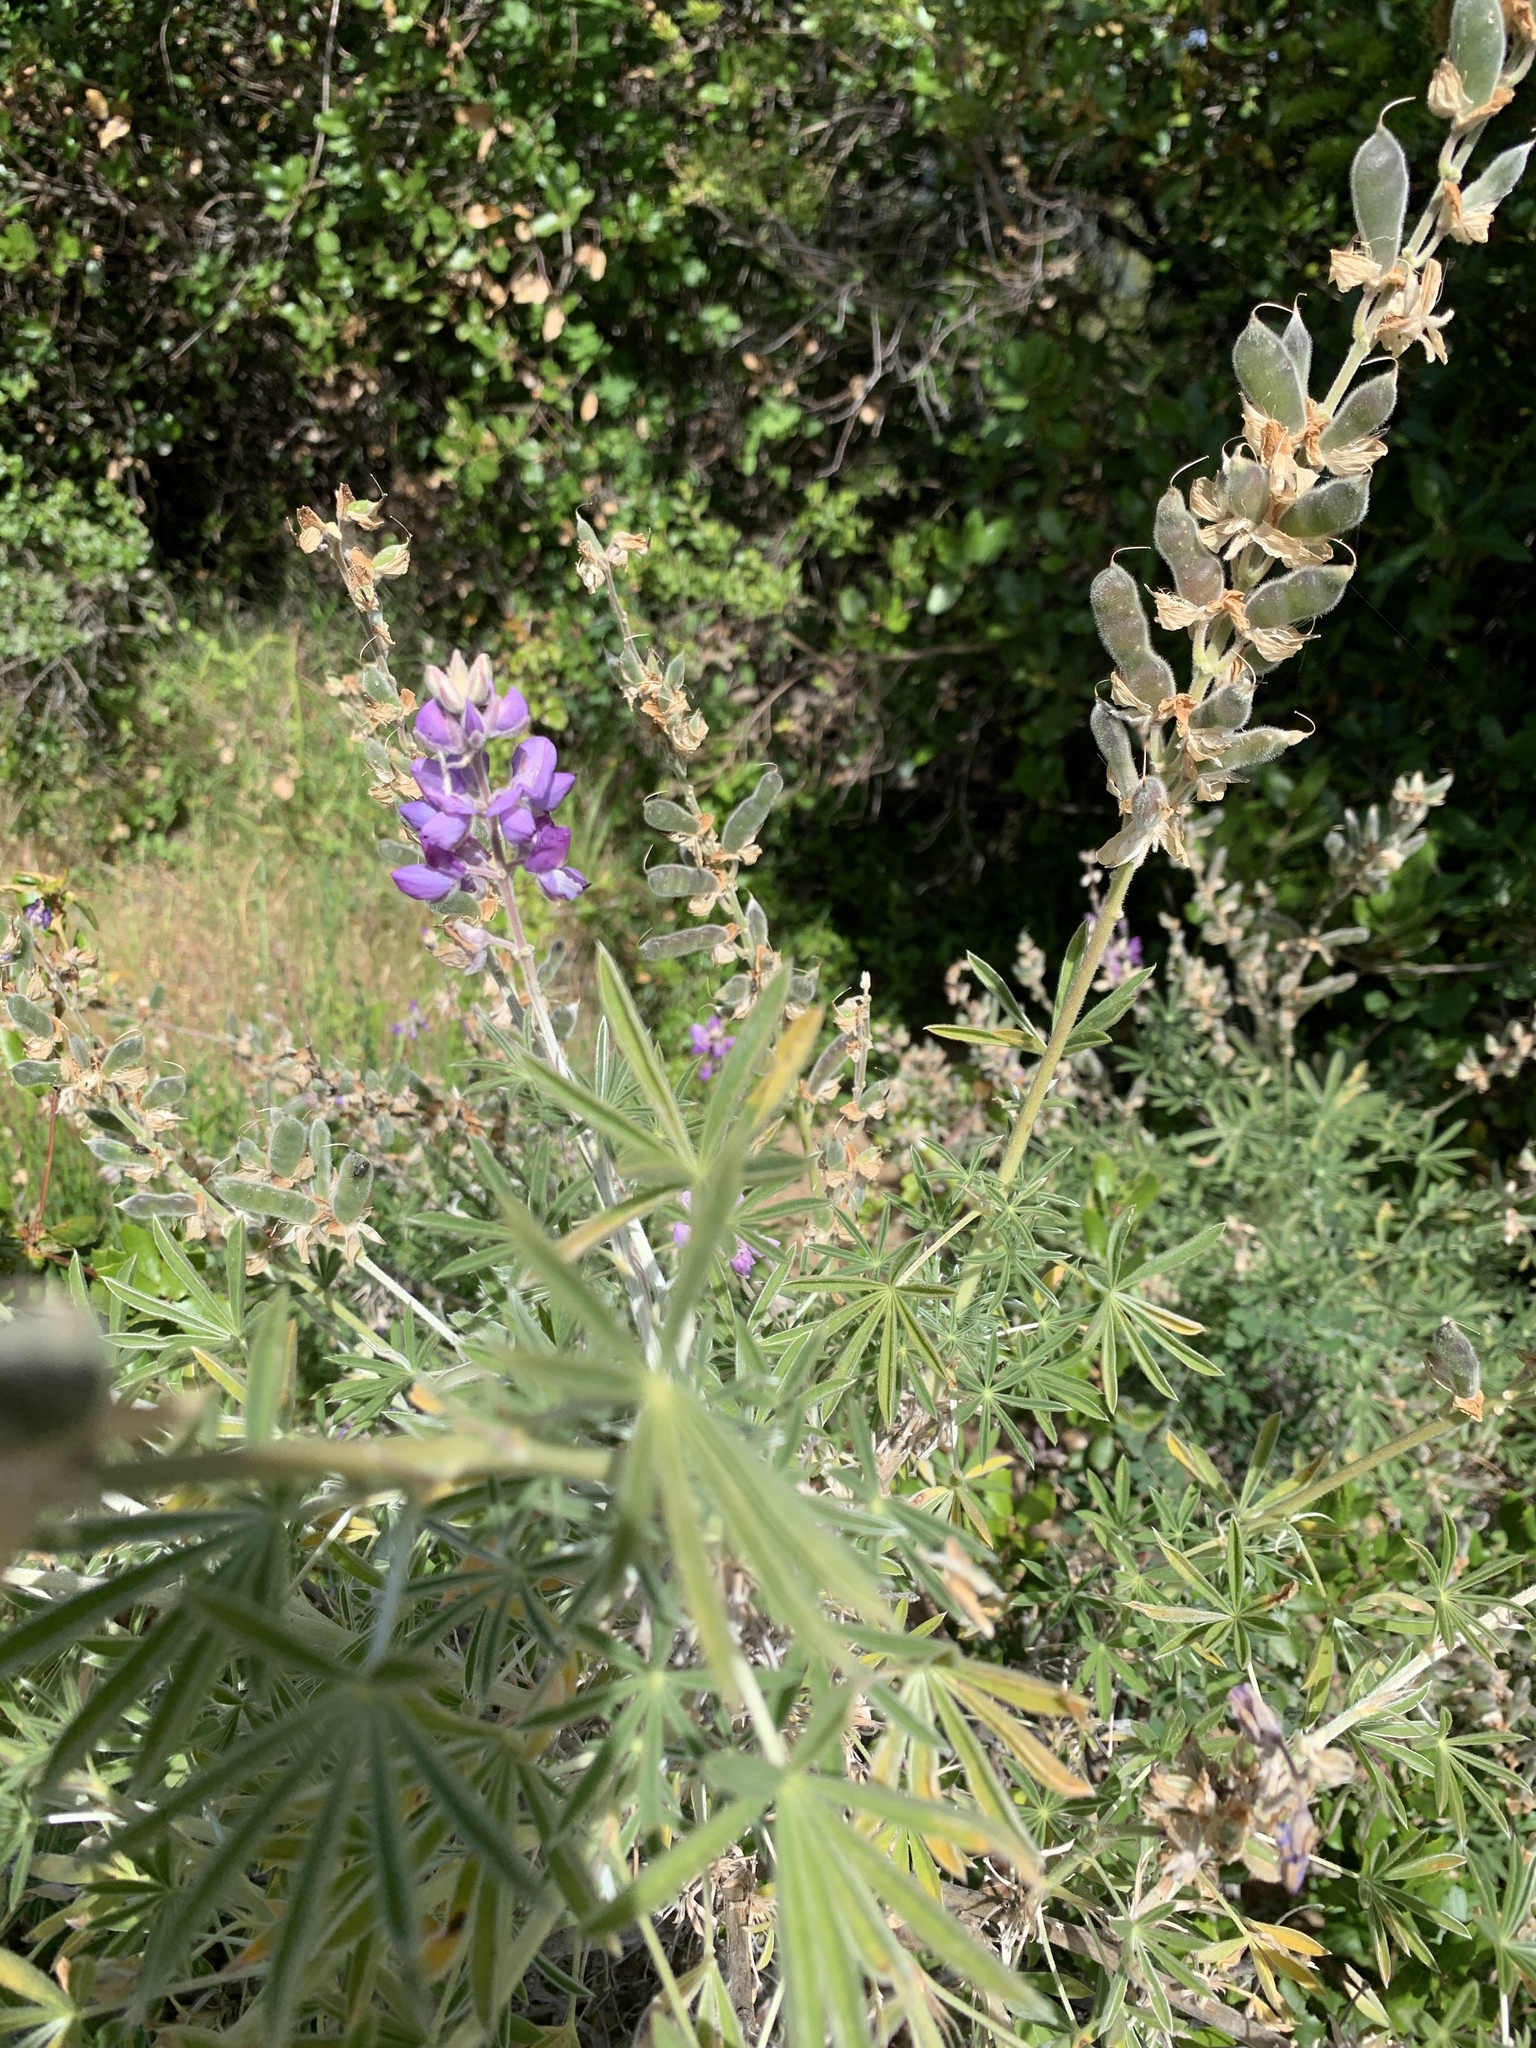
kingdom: Plantae
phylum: Tracheophyta
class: Magnoliopsida
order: Fabales
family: Fabaceae
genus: Lupinus
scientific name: Lupinus albifrons
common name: Foothill lupine
